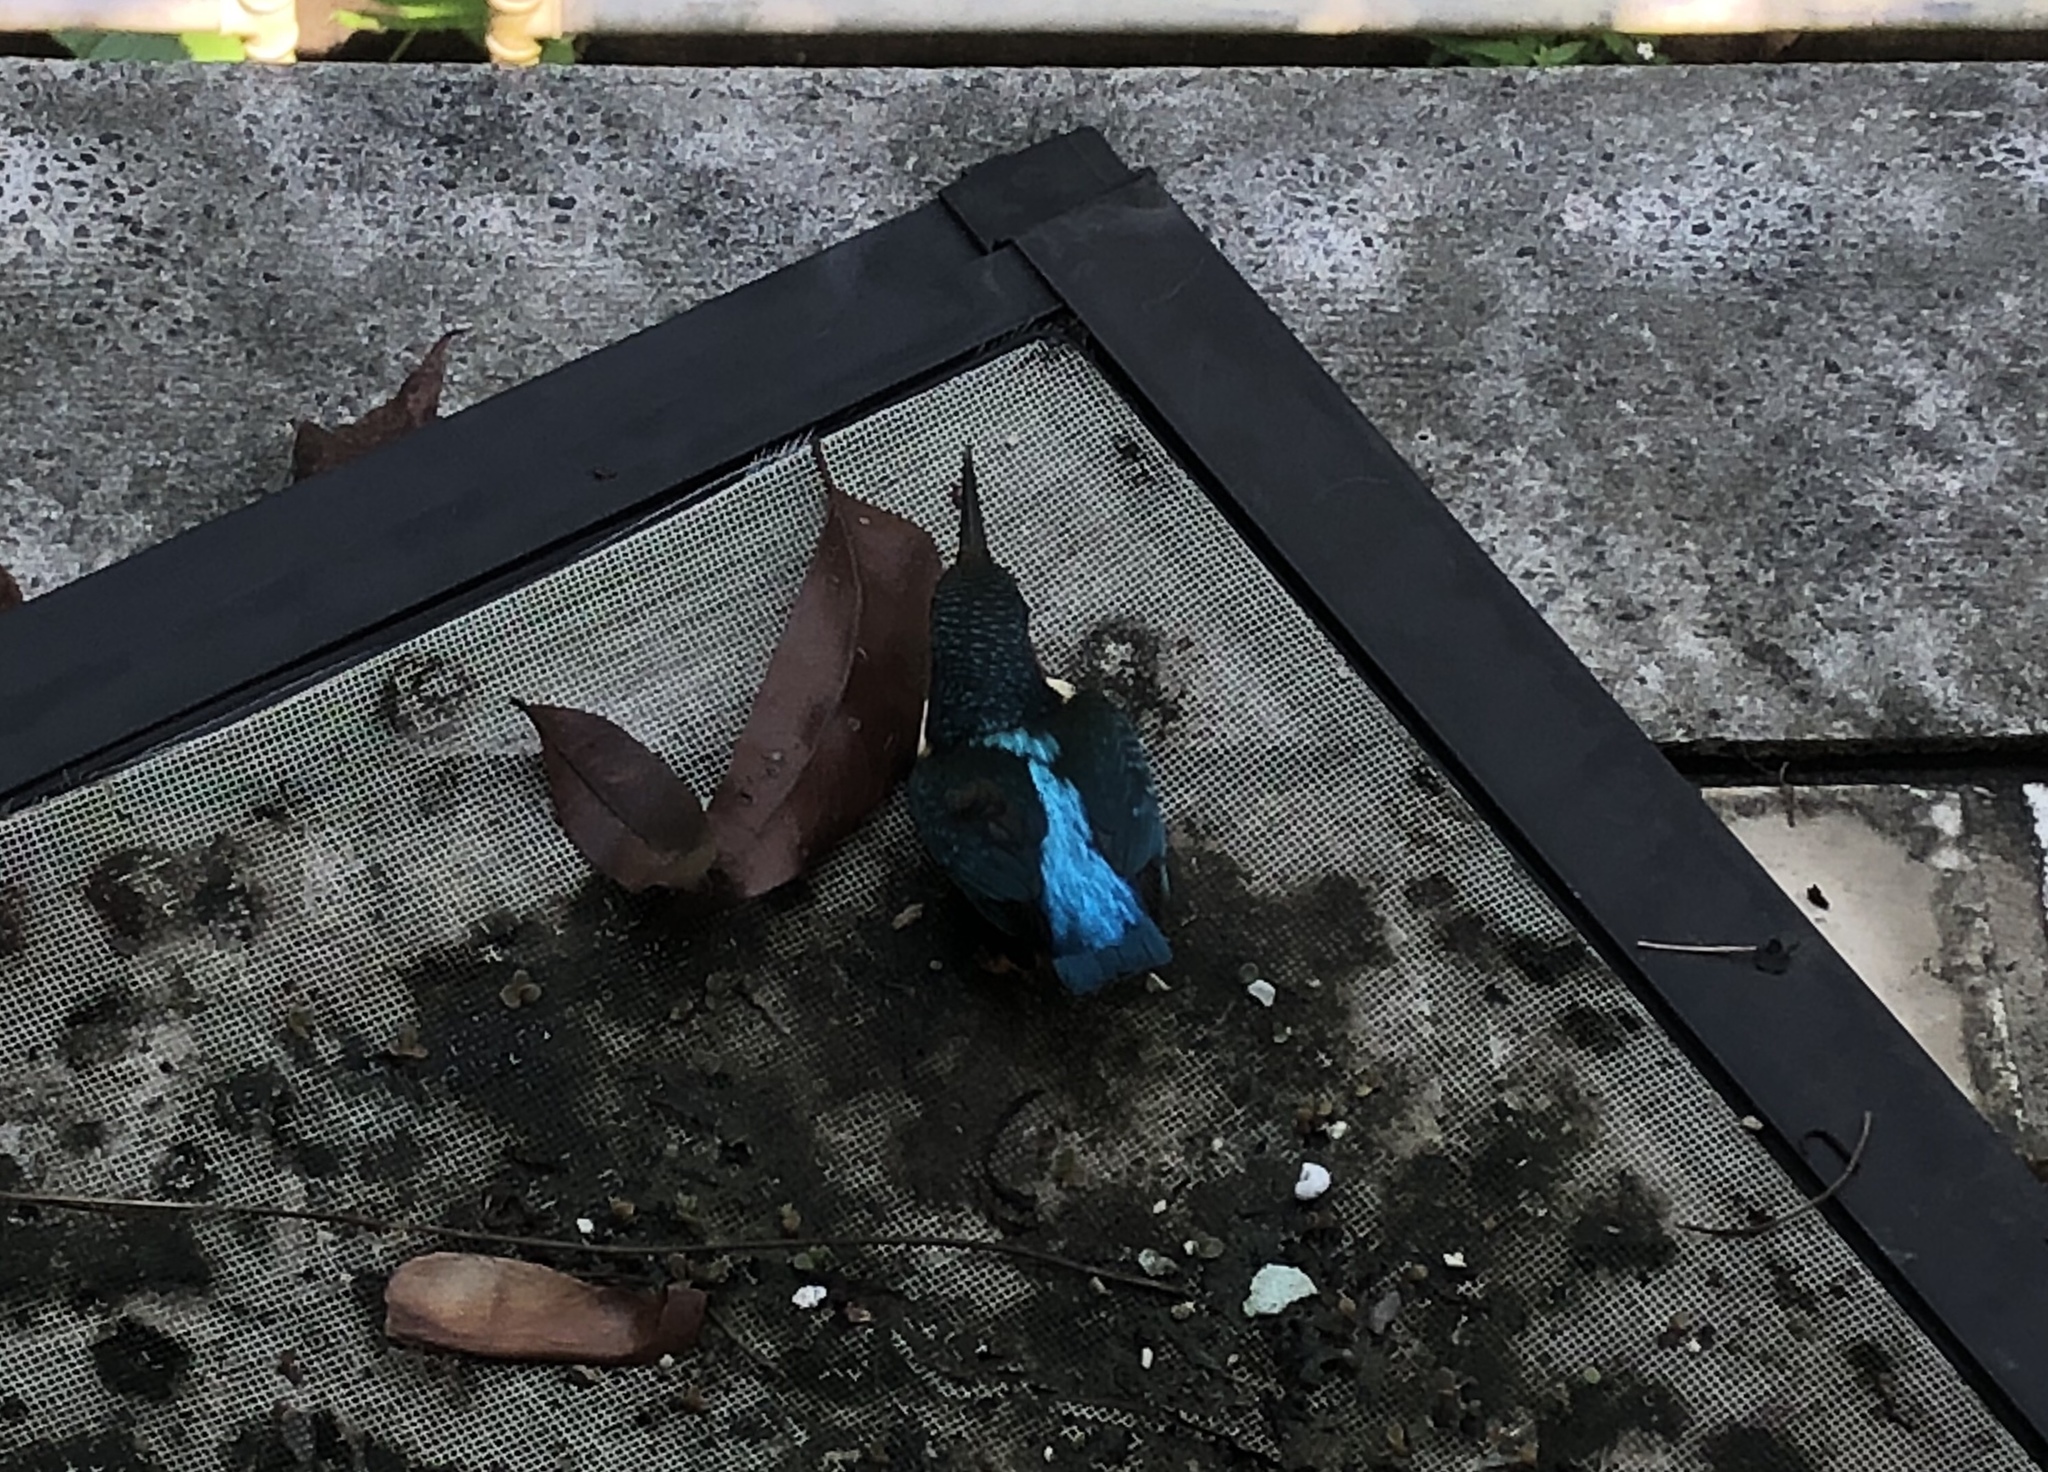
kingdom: Animalia
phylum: Chordata
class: Aves
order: Coraciiformes
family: Alcedinidae
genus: Alcedo
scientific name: Alcedo atthis
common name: Common kingfisher
